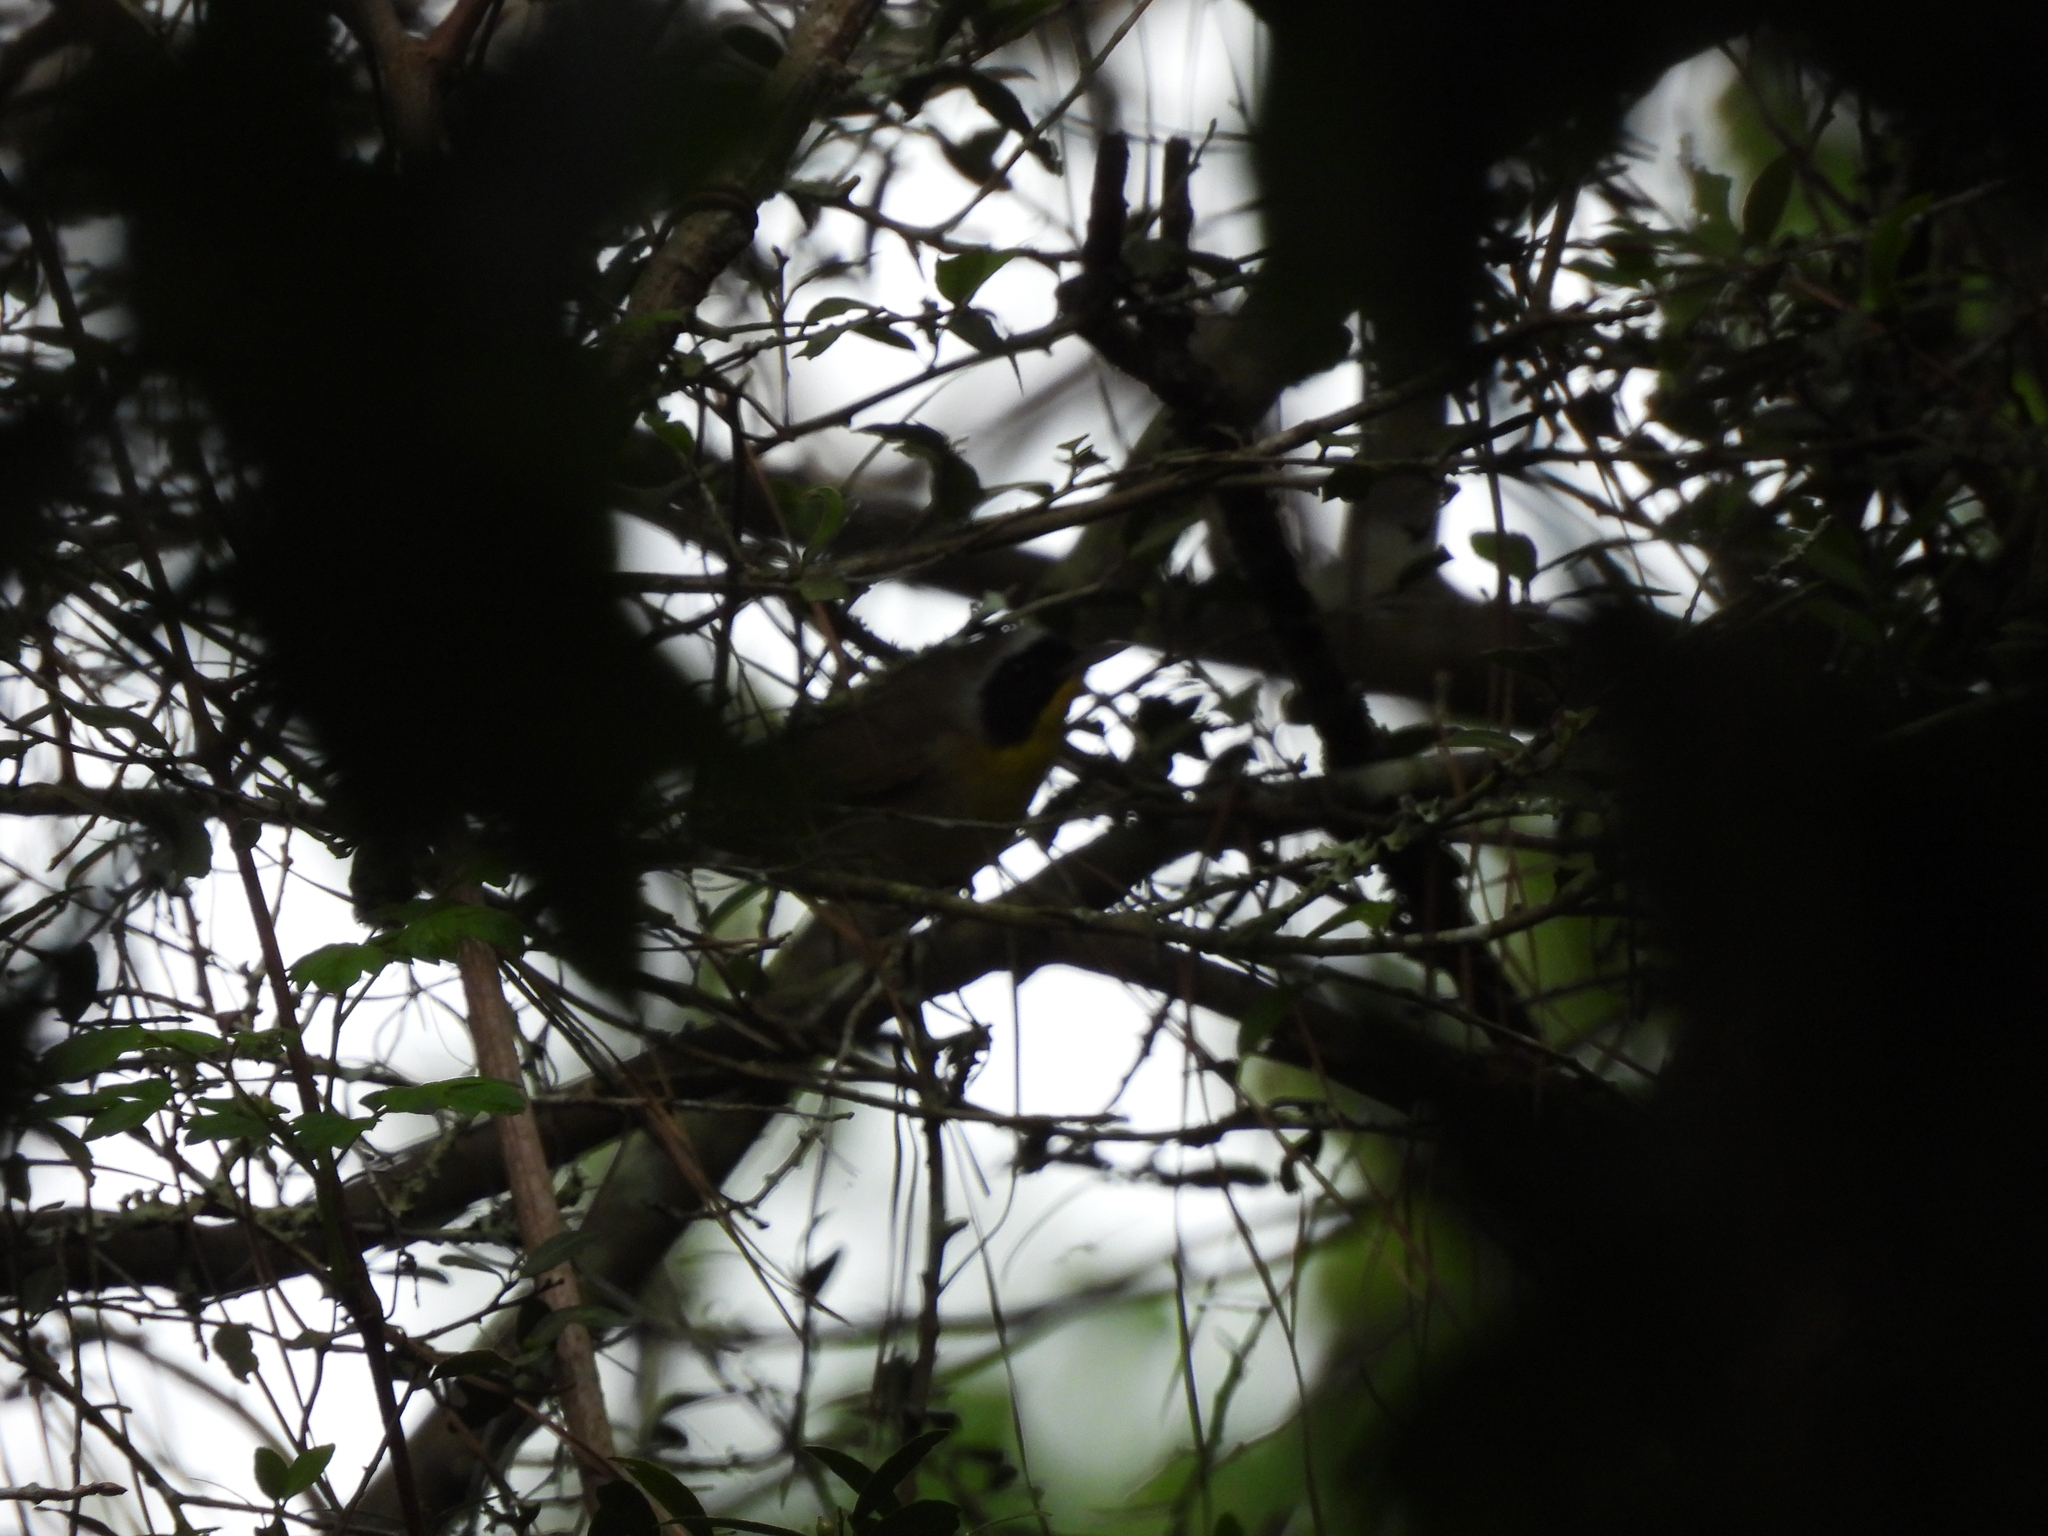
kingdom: Animalia
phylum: Chordata
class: Aves
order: Passeriformes
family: Parulidae
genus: Geothlypis
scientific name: Geothlypis trichas
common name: Common yellowthroat
